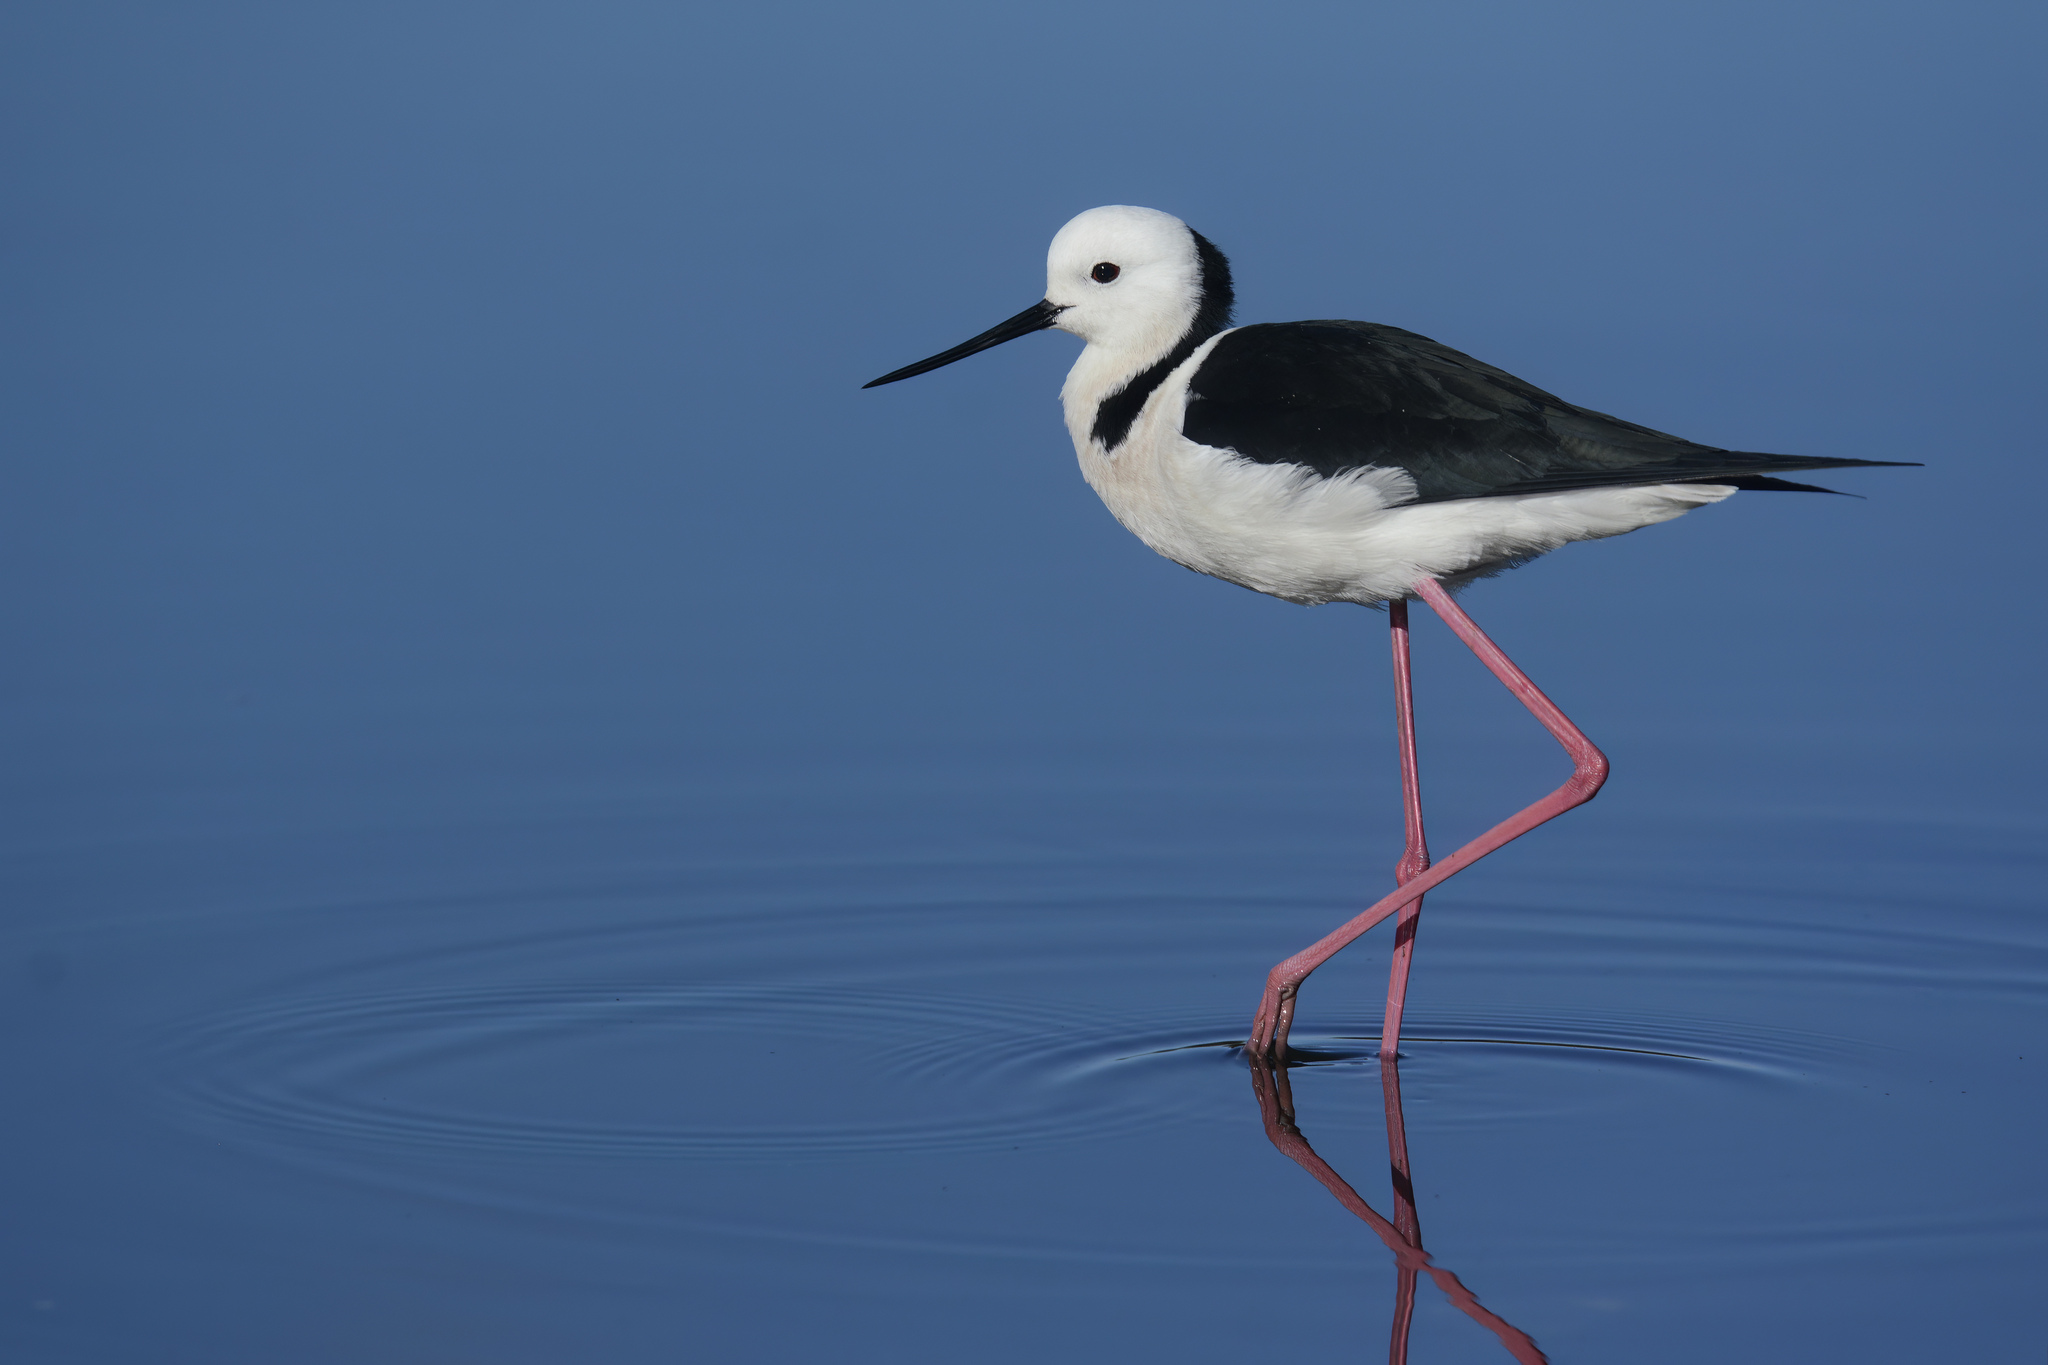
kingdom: Animalia
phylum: Chordata
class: Aves
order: Charadriiformes
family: Recurvirostridae
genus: Himantopus
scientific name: Himantopus leucocephalus
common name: White-headed stilt
